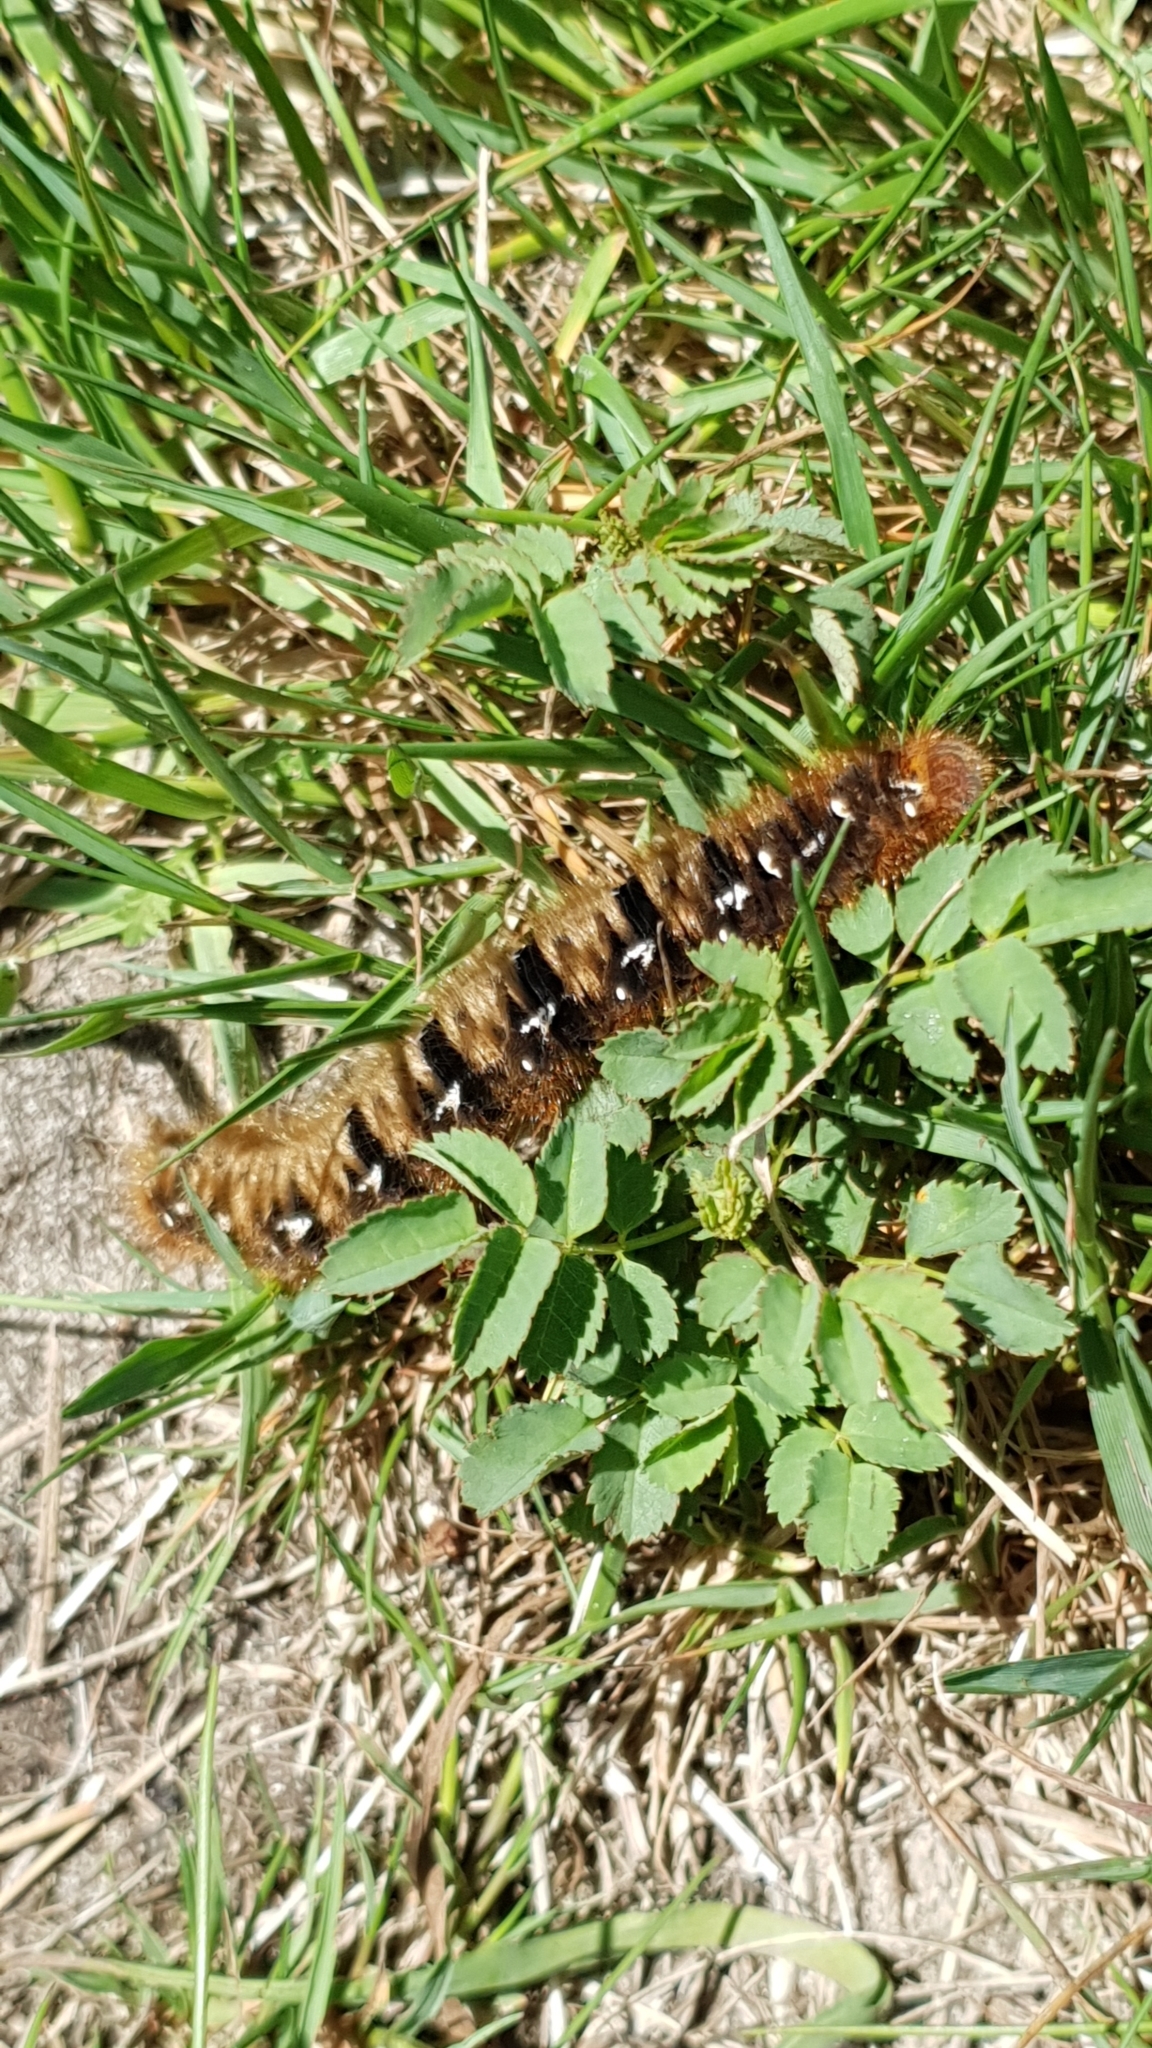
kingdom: Animalia
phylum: Arthropoda
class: Insecta
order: Lepidoptera
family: Lasiocampidae
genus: Lasiocampa
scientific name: Lasiocampa quercus
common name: Oak eggar
